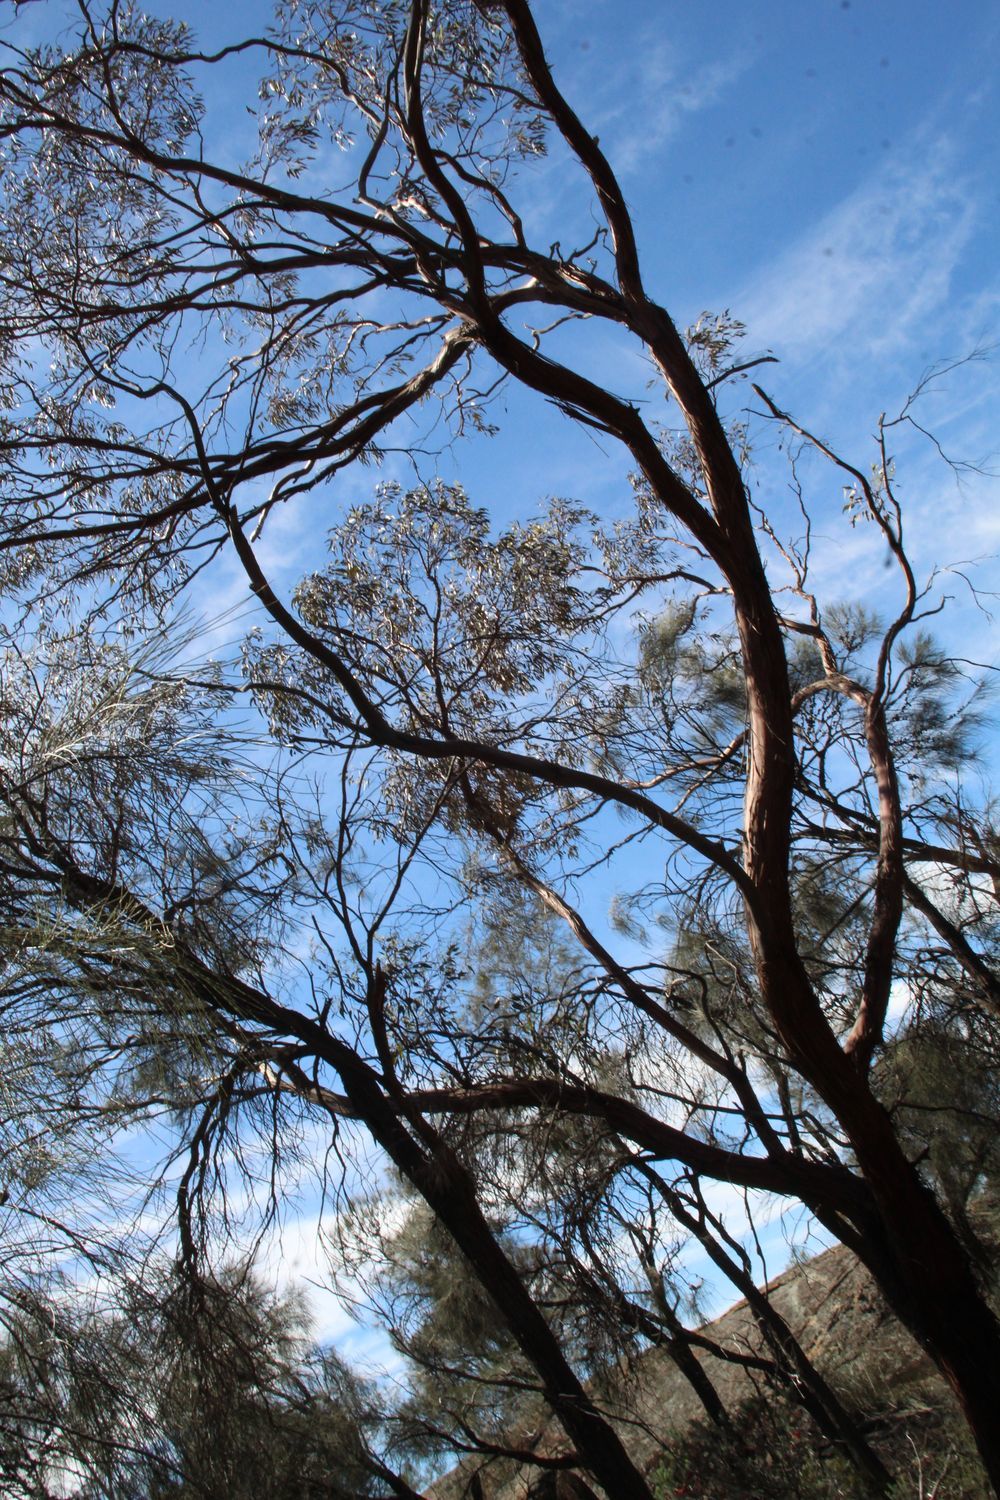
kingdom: Plantae
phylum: Tracheophyta
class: Magnoliopsida
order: Myrtales
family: Myrtaceae
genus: Eucalyptus
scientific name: Eucalyptus caesia
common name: Silver princess
